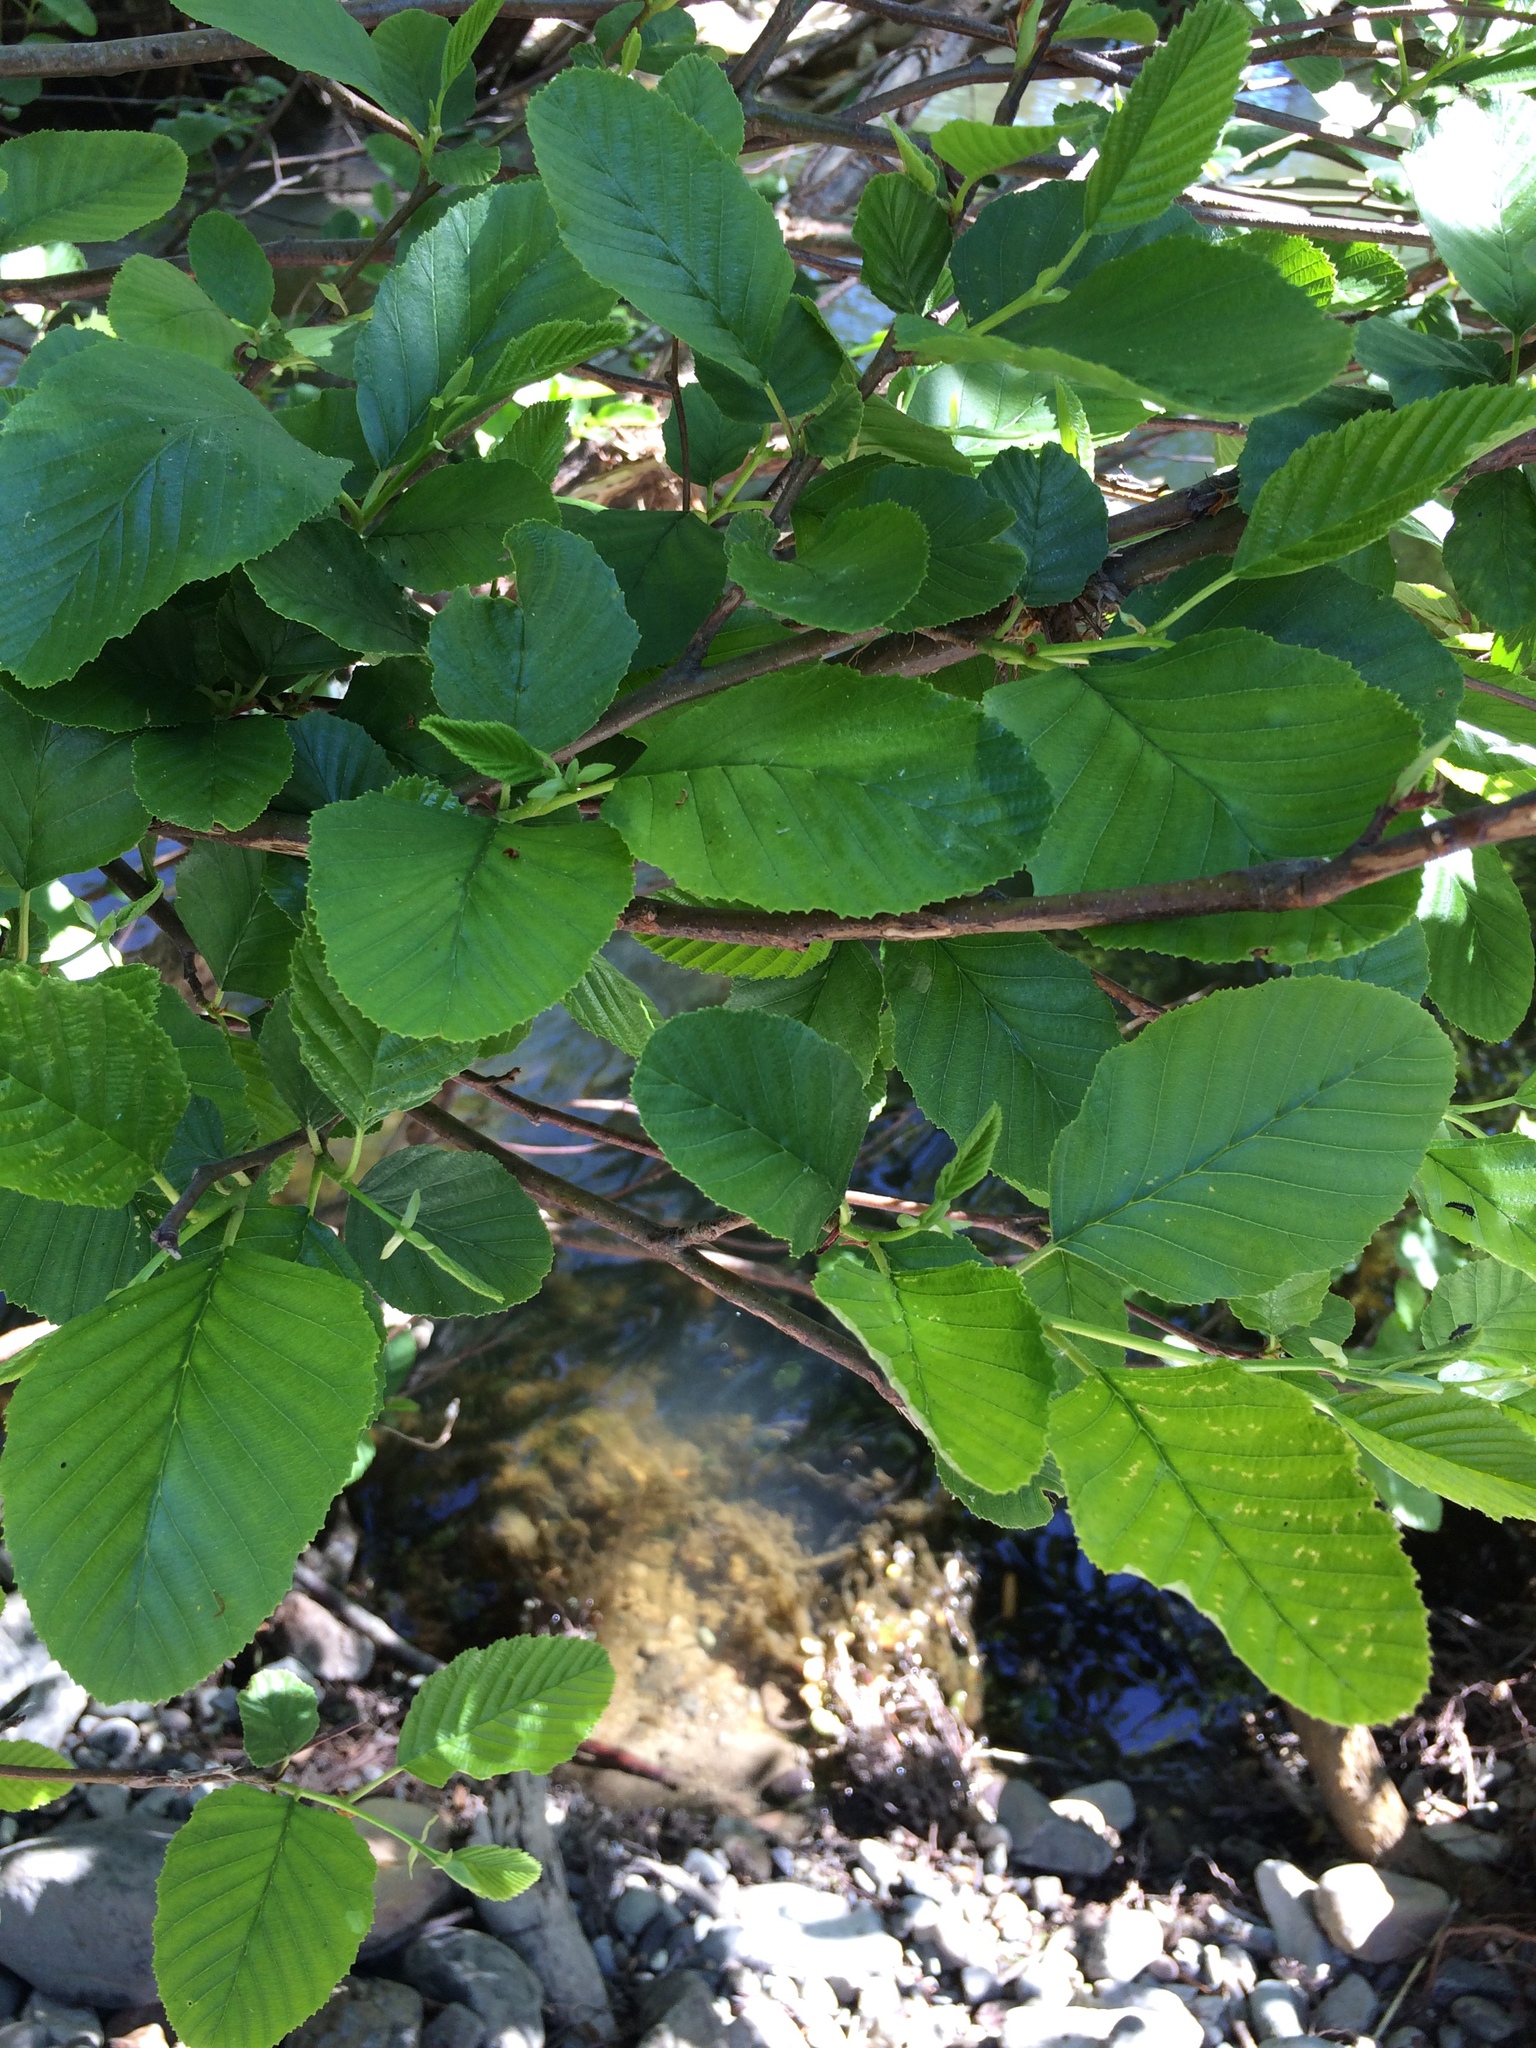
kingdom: Plantae
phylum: Tracheophyta
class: Magnoliopsida
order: Fagales
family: Betulaceae
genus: Alnus
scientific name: Alnus rhombifolia
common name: California alder
